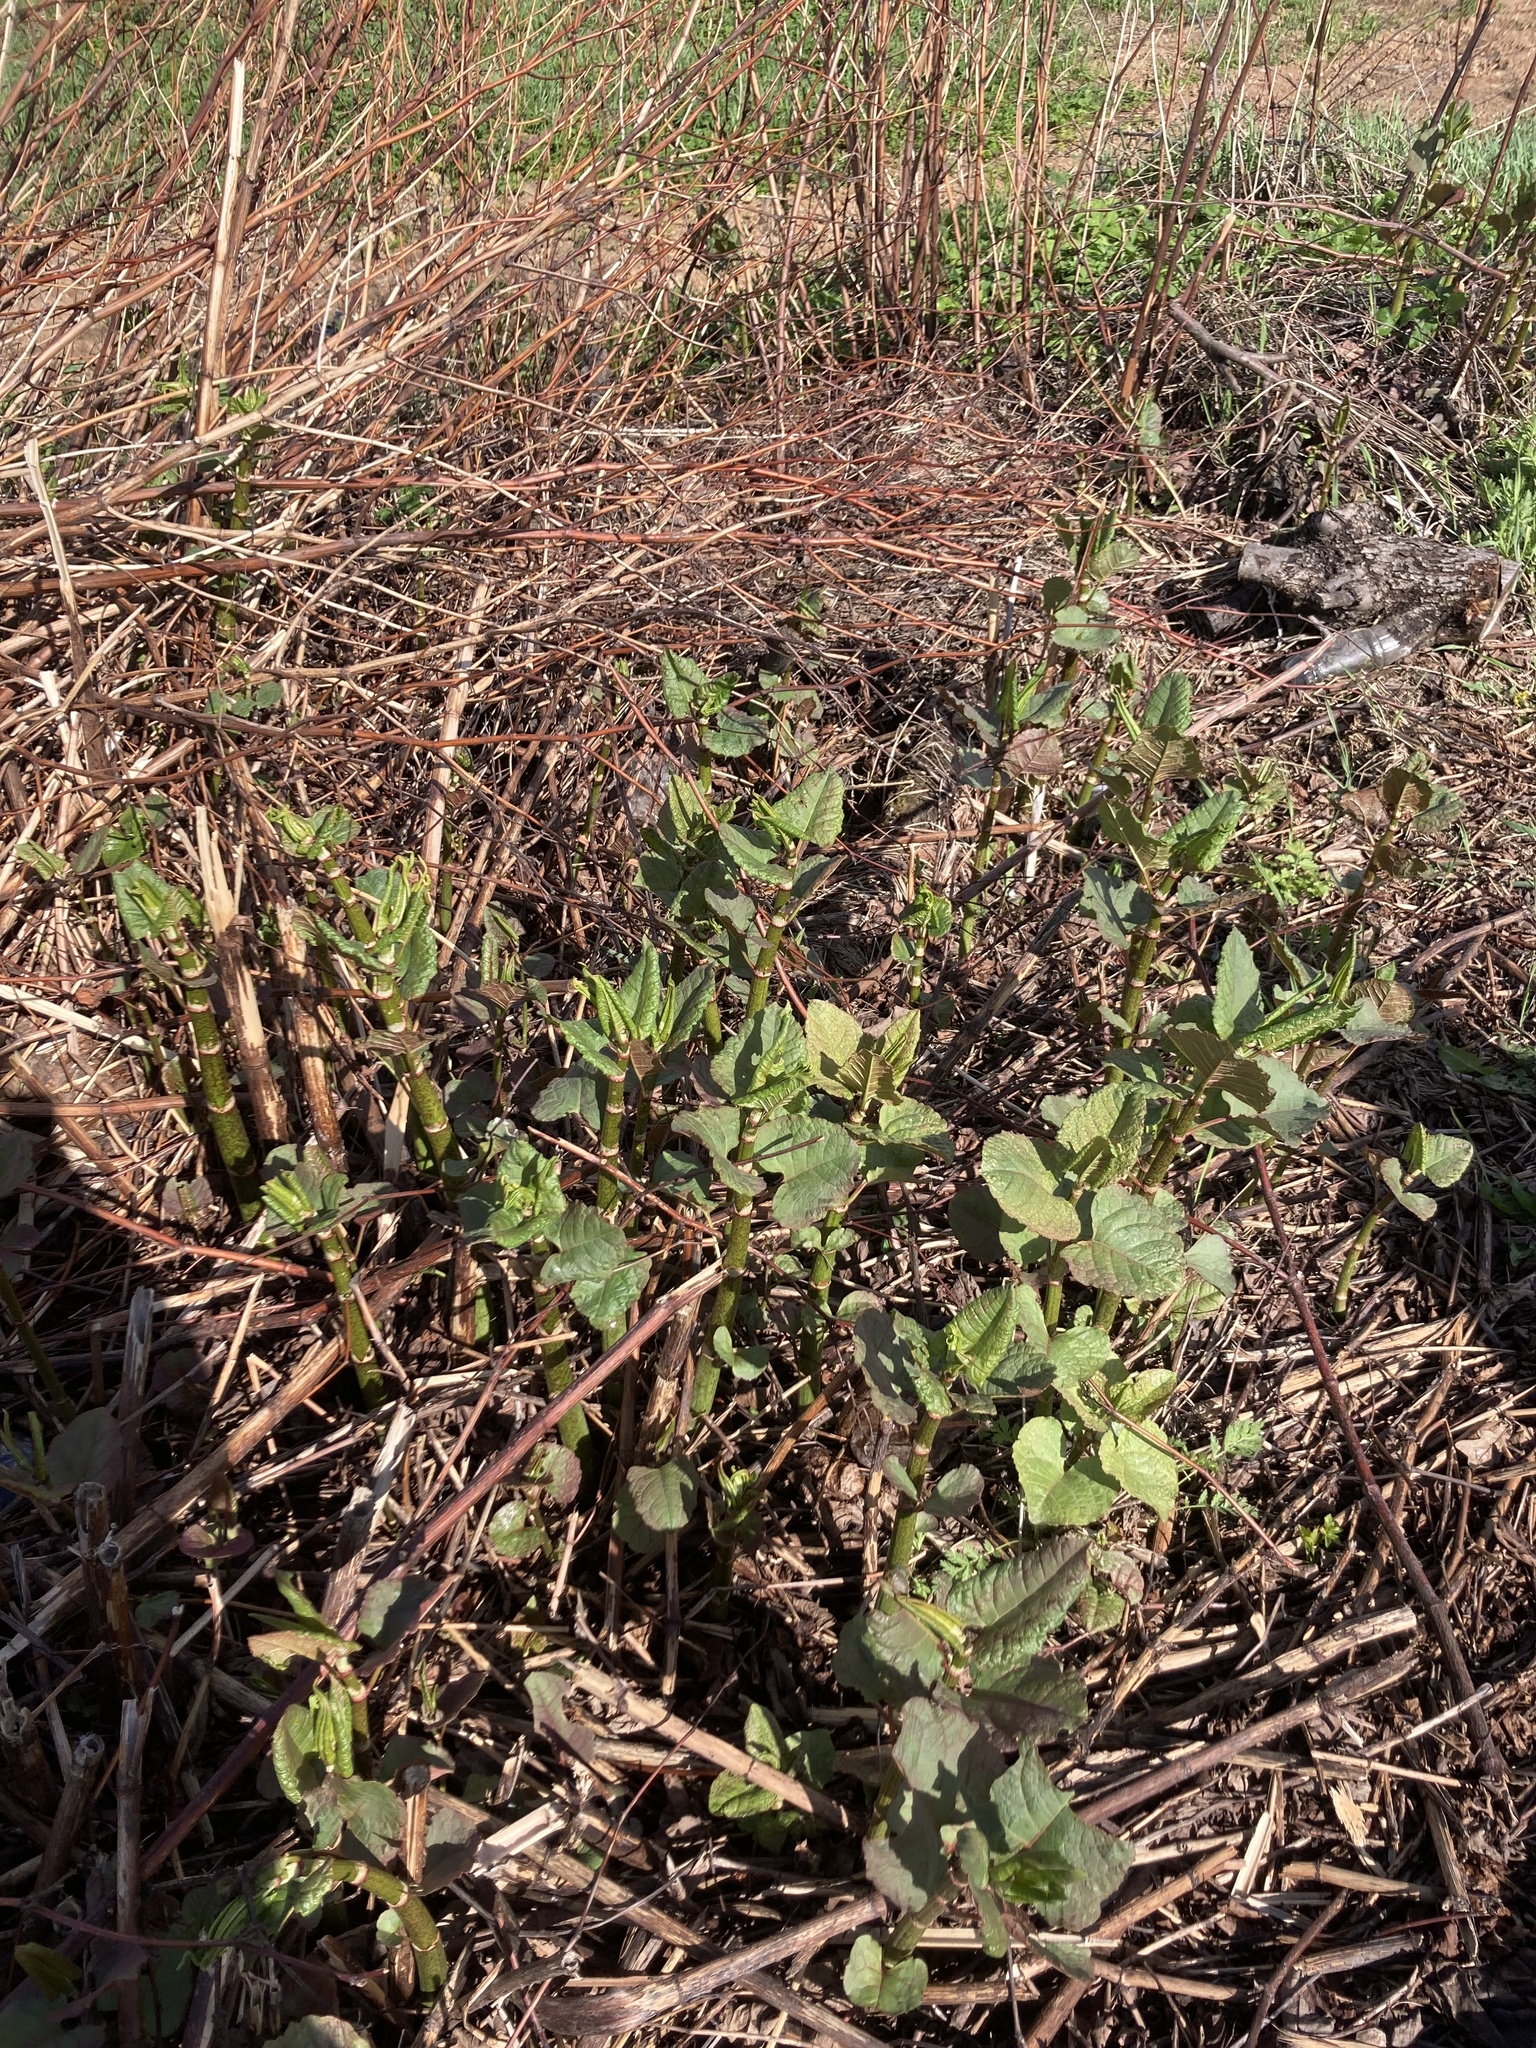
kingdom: Plantae
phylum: Tracheophyta
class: Magnoliopsida
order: Caryophyllales
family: Polygonaceae
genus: Reynoutria
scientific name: Reynoutria bohemica
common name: Bohemian knotweed
